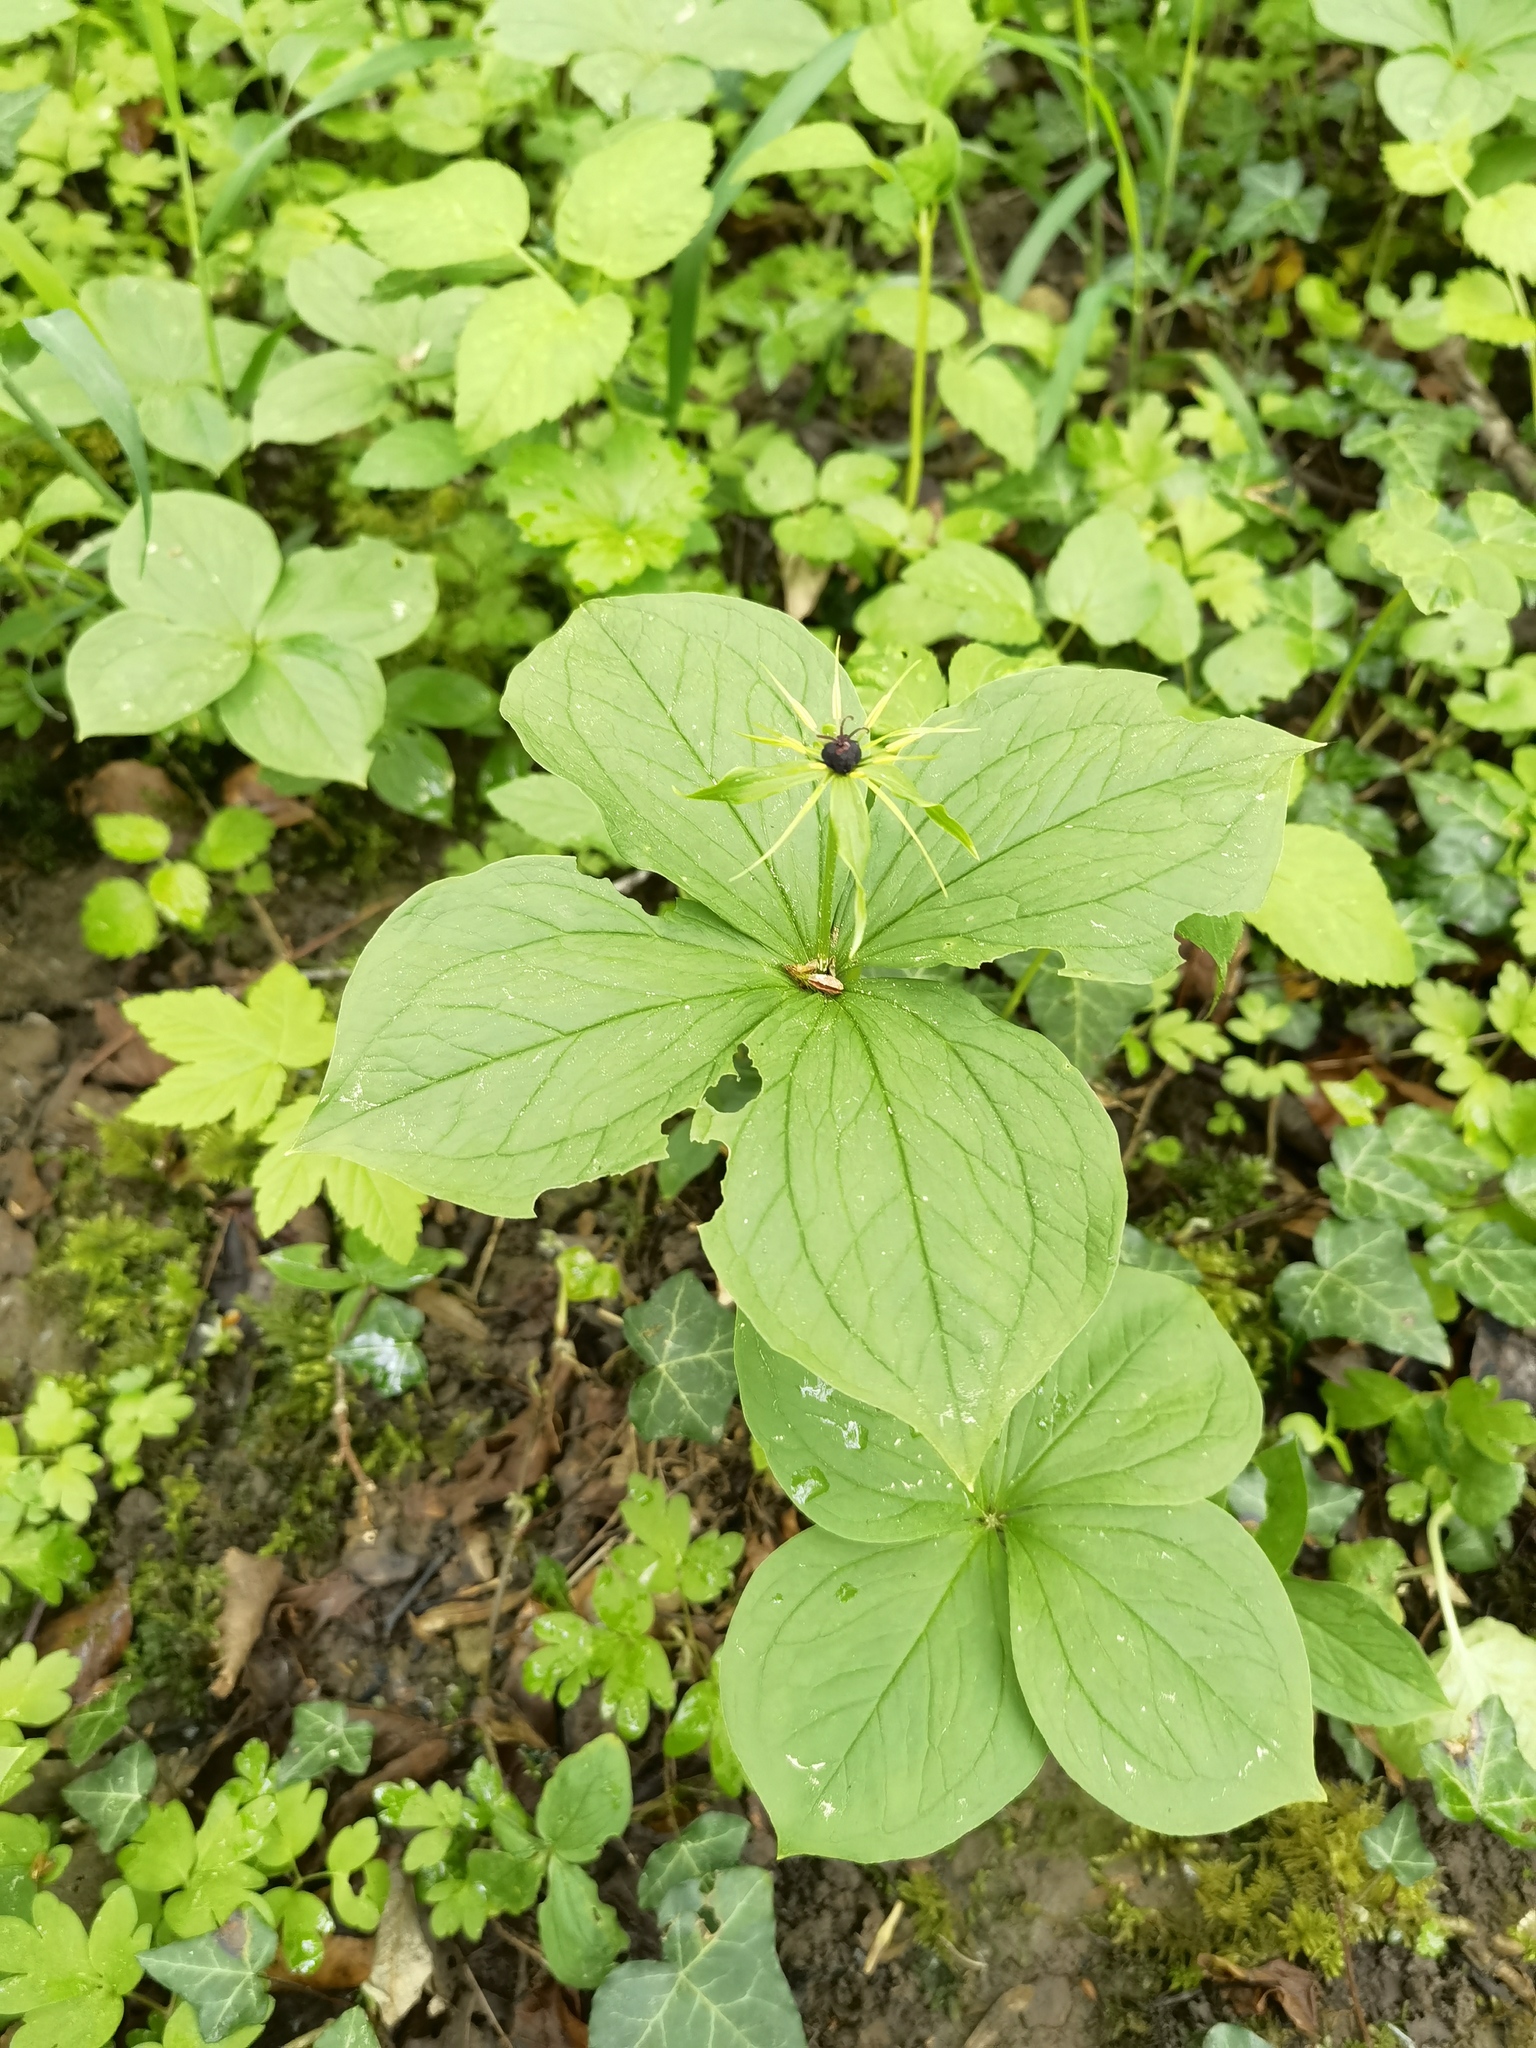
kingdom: Plantae
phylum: Tracheophyta
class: Liliopsida
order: Liliales
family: Melanthiaceae
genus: Paris
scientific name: Paris quadrifolia
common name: Herb-paris
